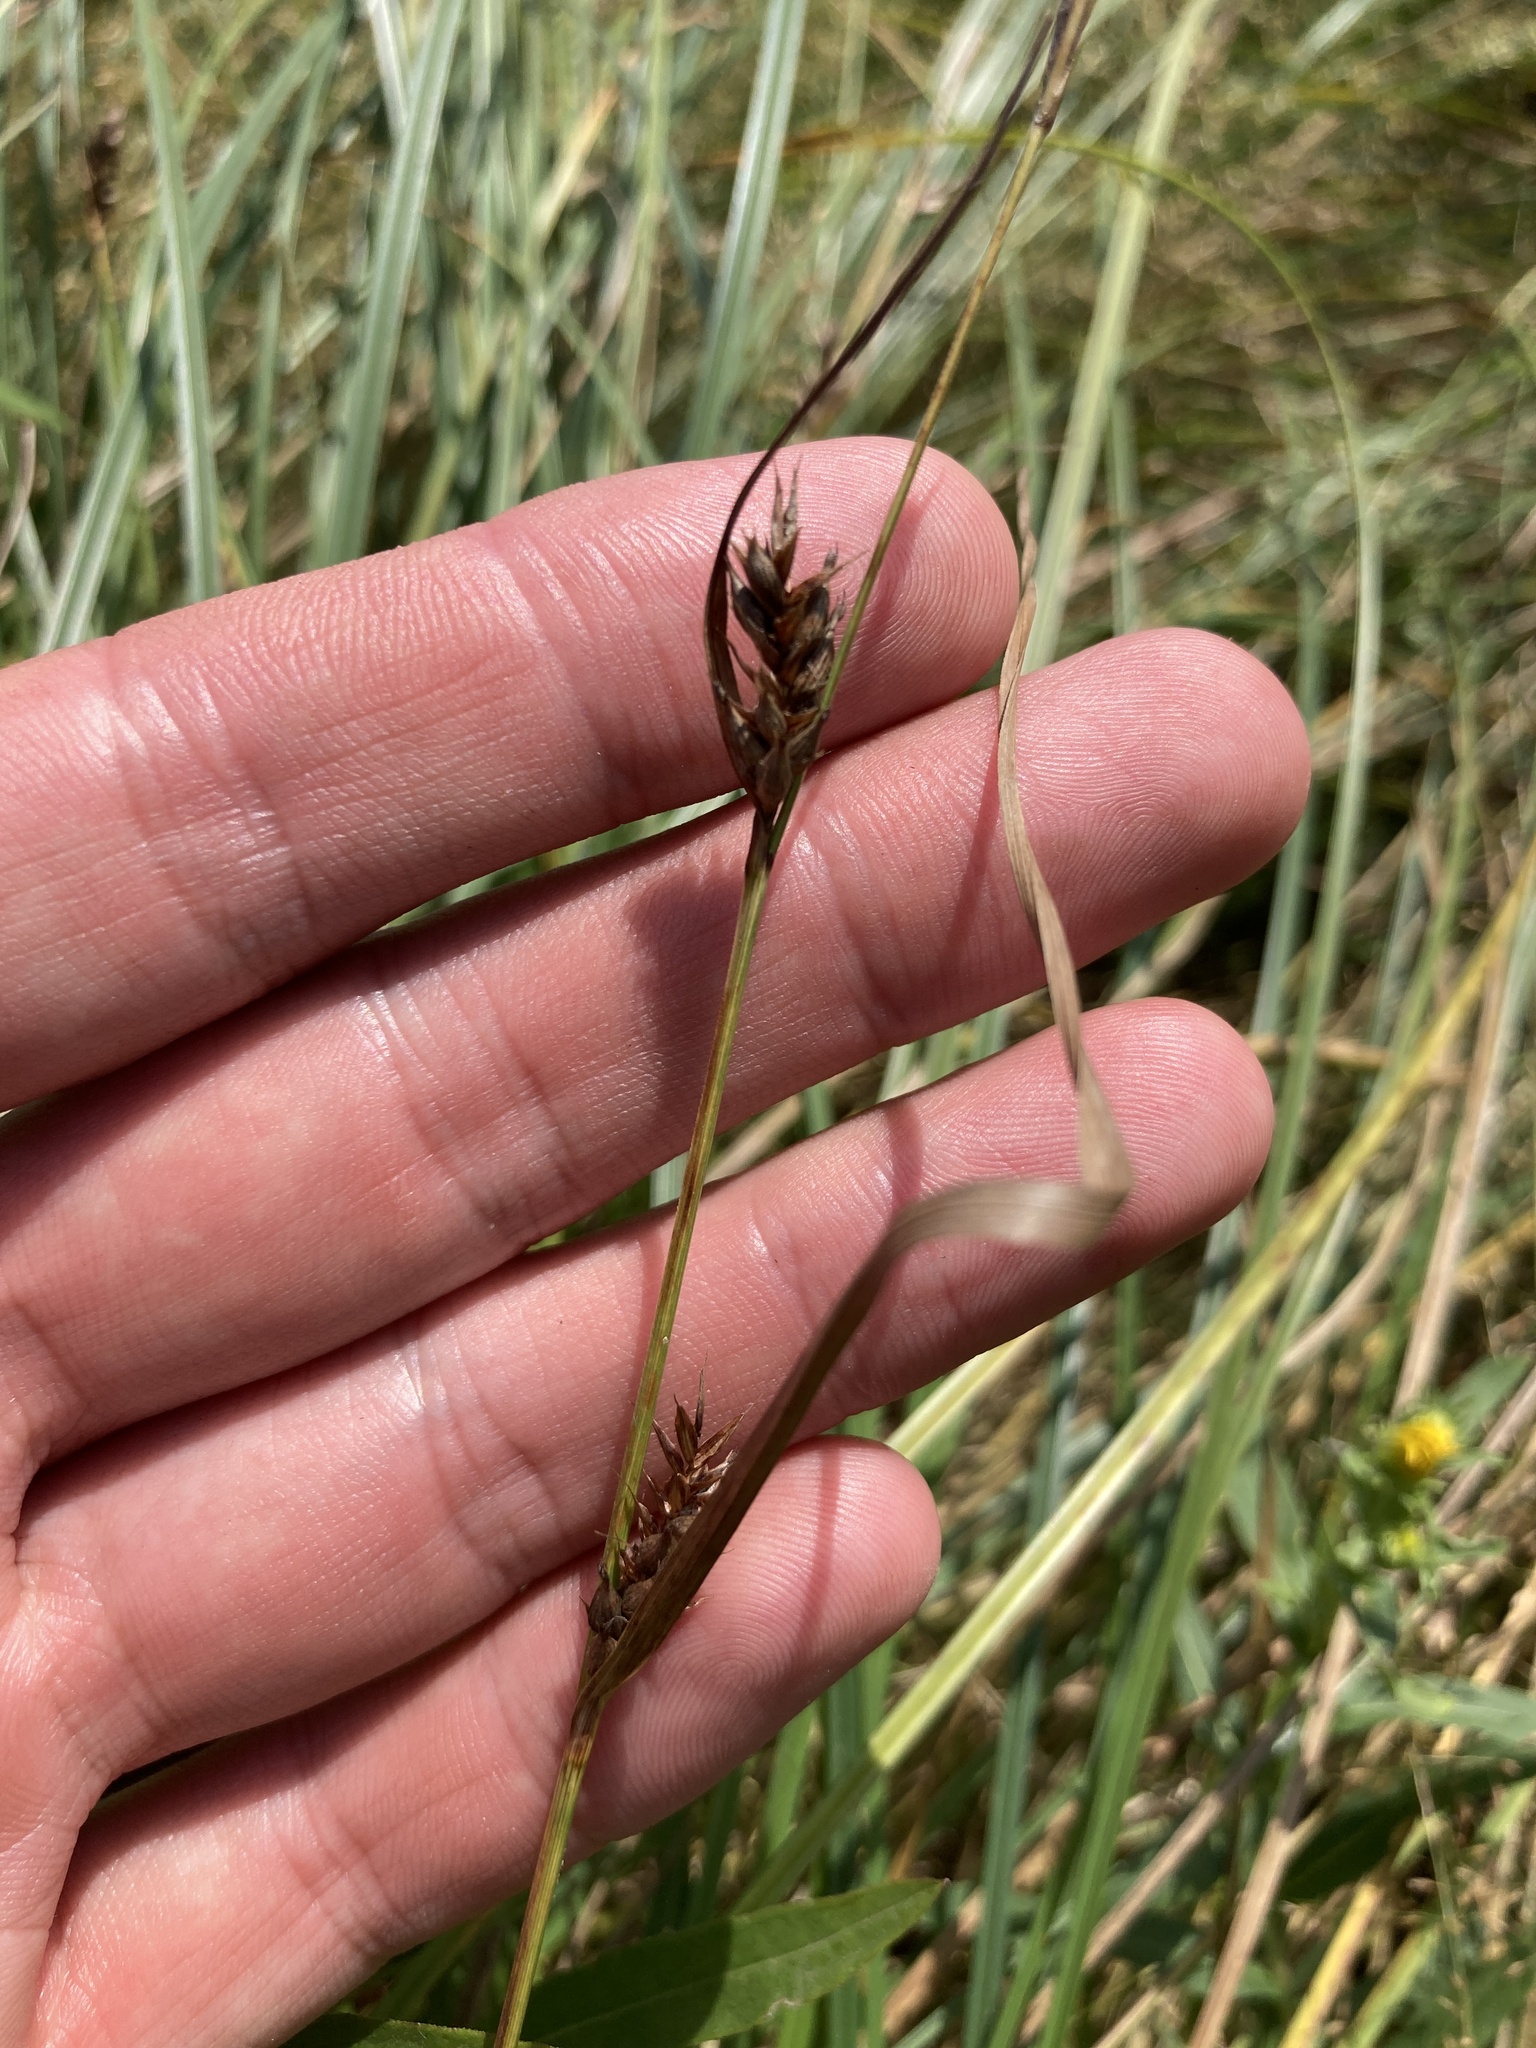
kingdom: Plantae
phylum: Tracheophyta
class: Liliopsida
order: Poales
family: Cyperaceae
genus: Carex
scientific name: Carex hirta
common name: Hairy sedge
